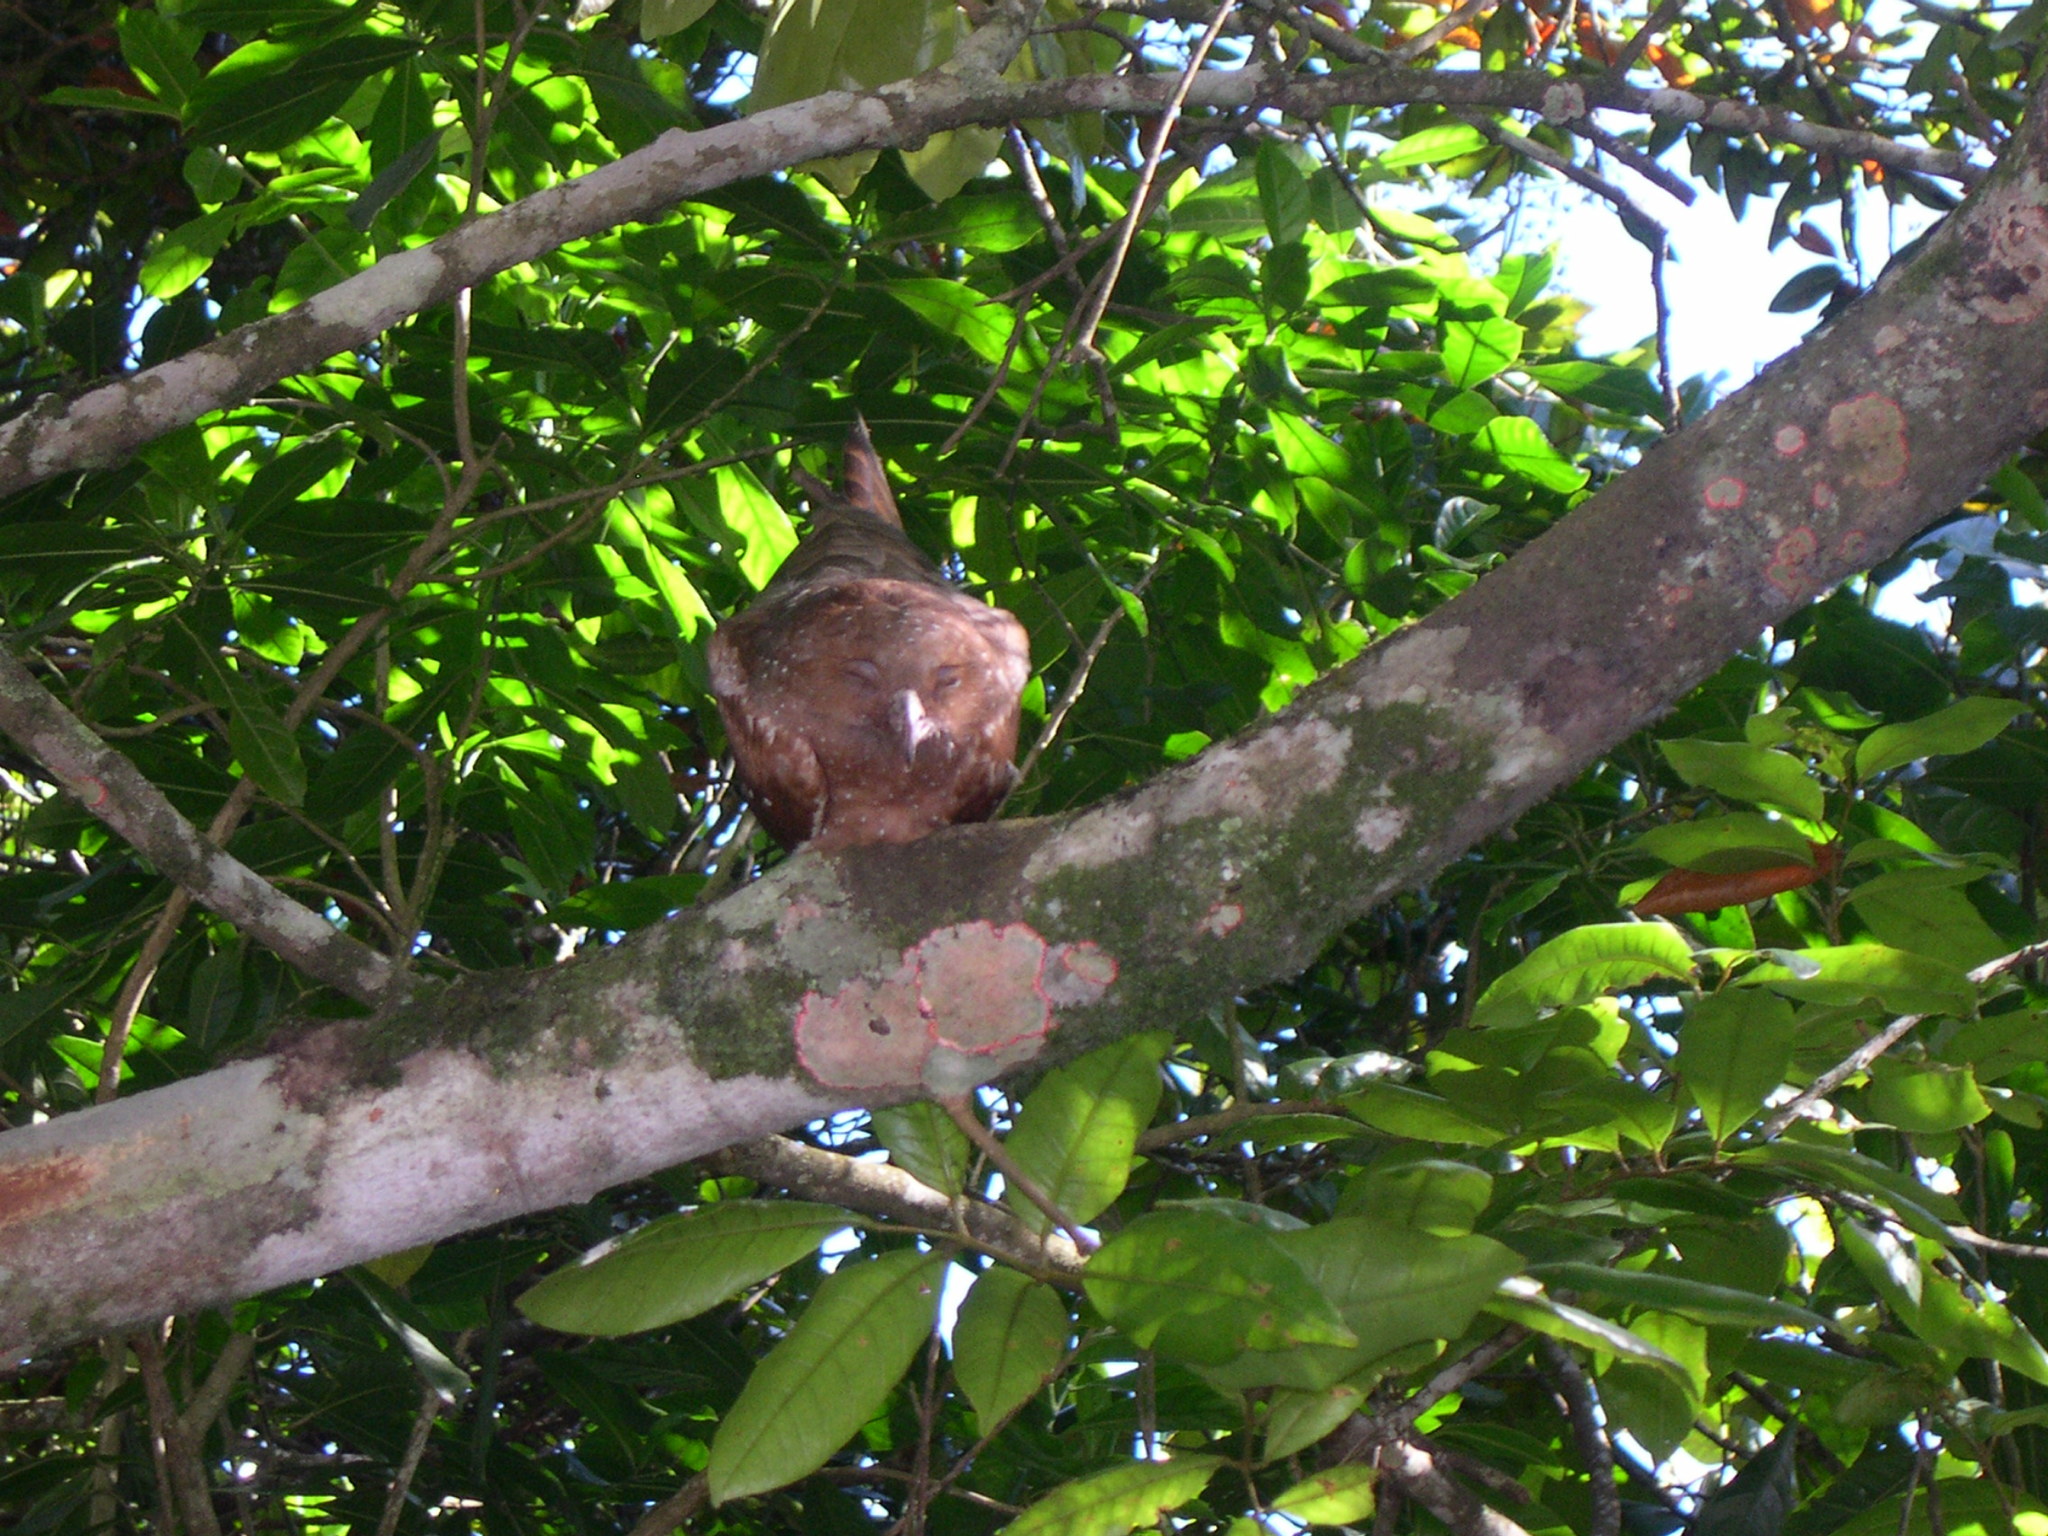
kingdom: Animalia
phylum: Chordata
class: Aves
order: Steatornithiformes
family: Steatornithidae
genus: Steatornis
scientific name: Steatornis caripensis
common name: Oilbird
